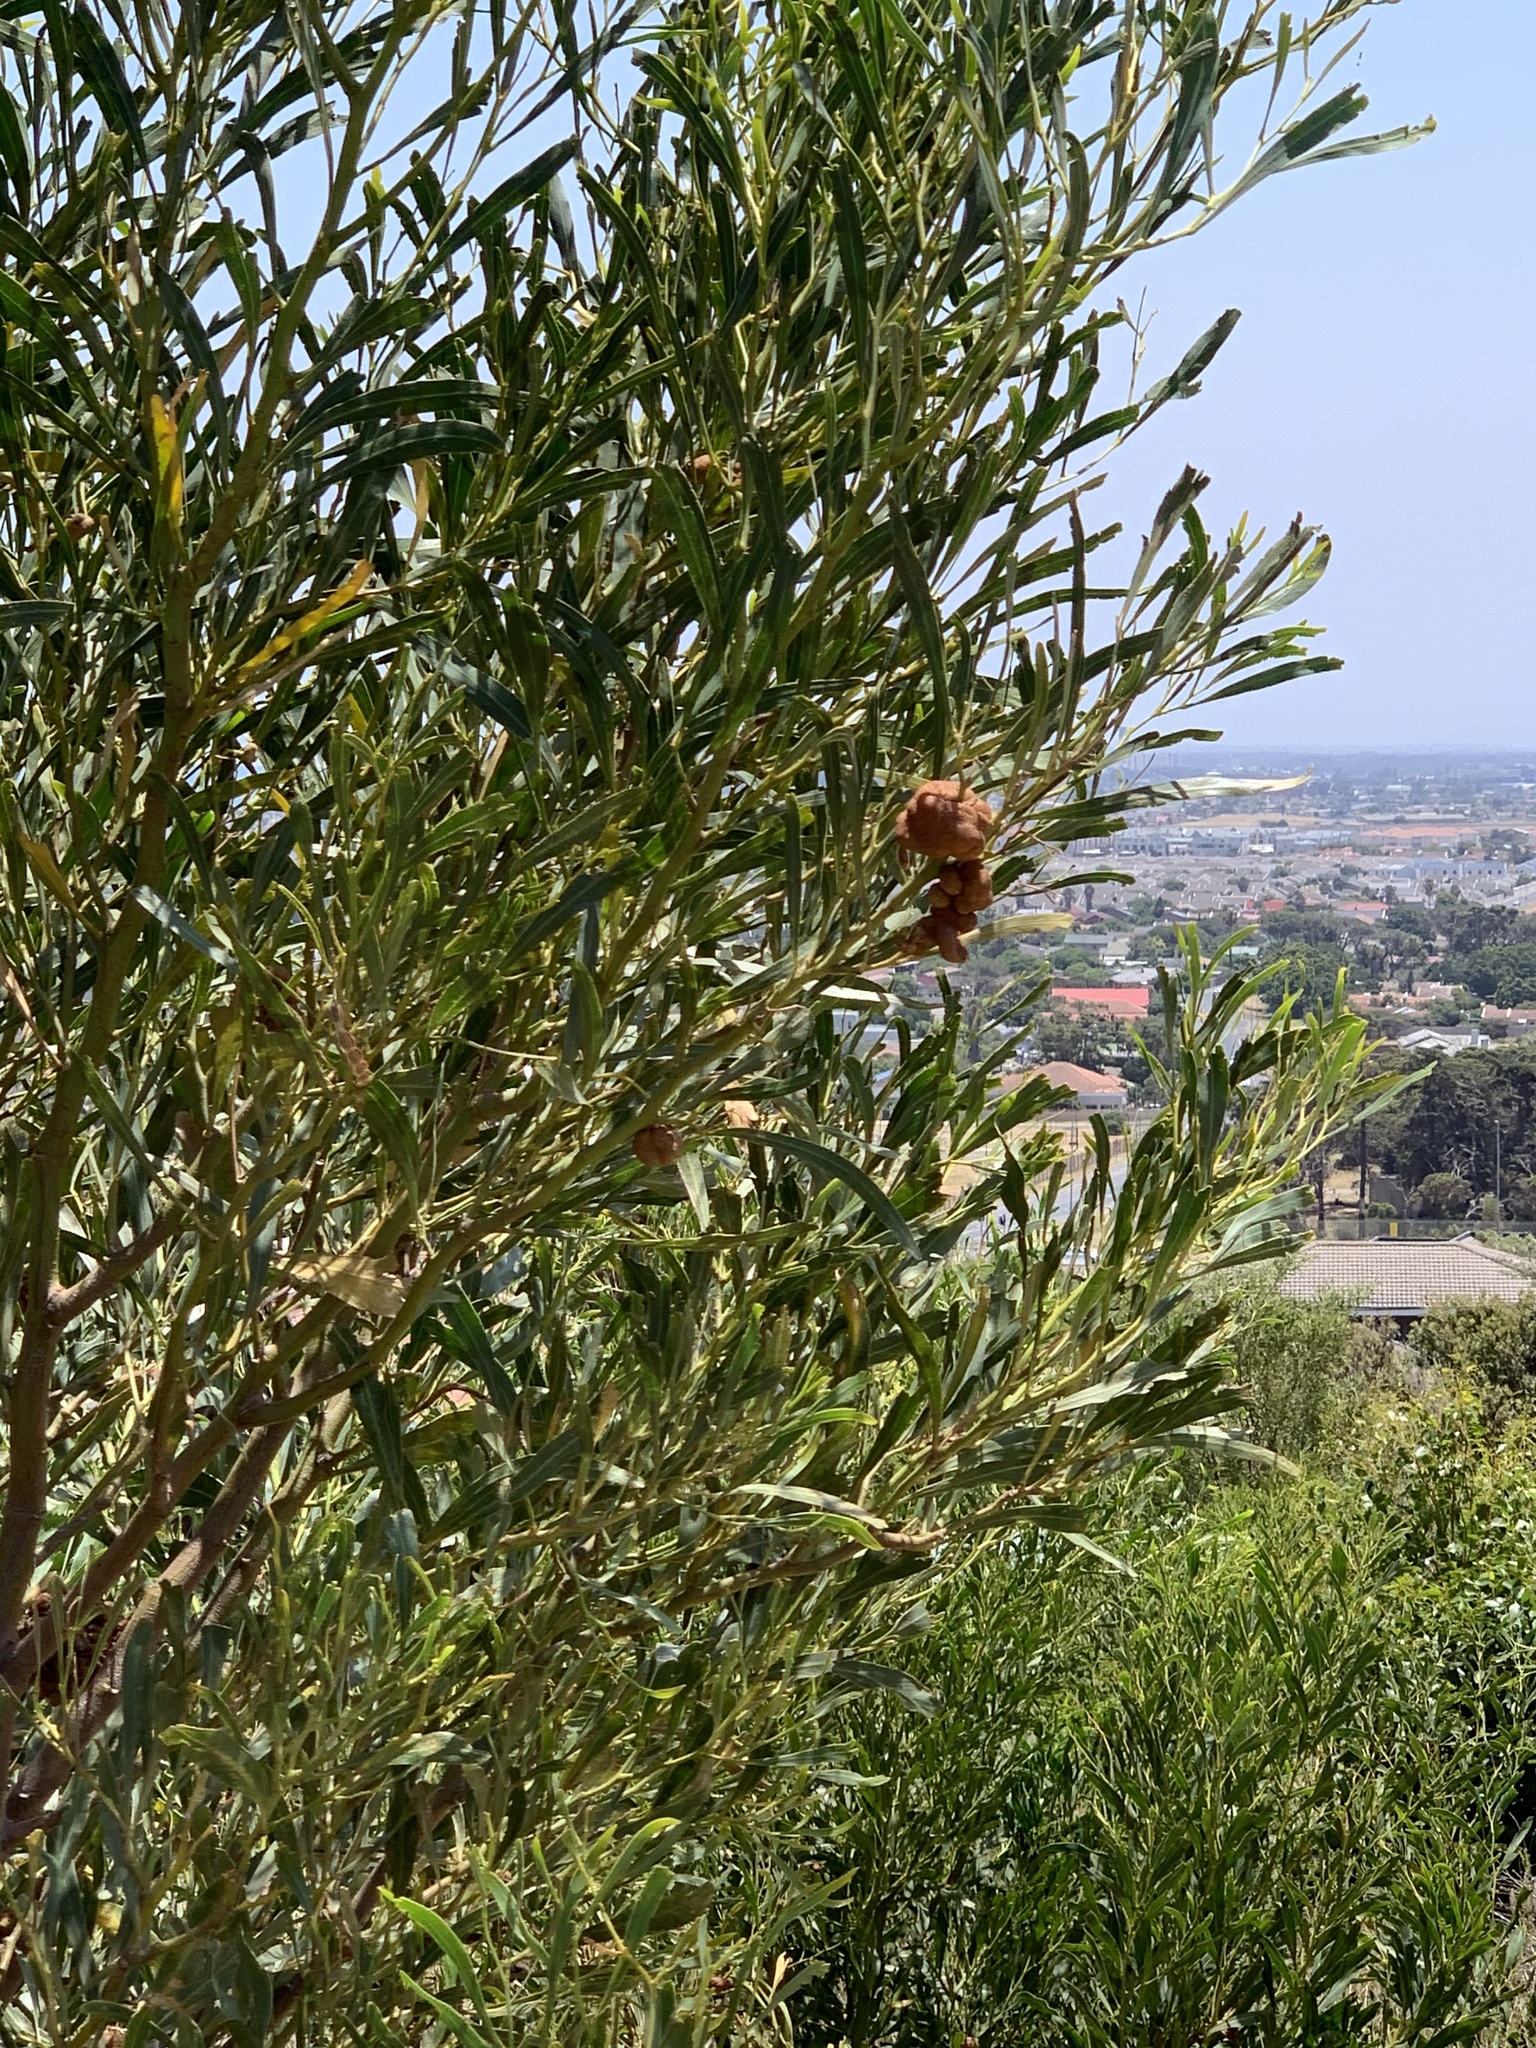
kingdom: Plantae
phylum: Tracheophyta
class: Magnoliopsida
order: Fabales
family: Fabaceae
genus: Acacia
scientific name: Acacia saligna
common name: Orange wattle
